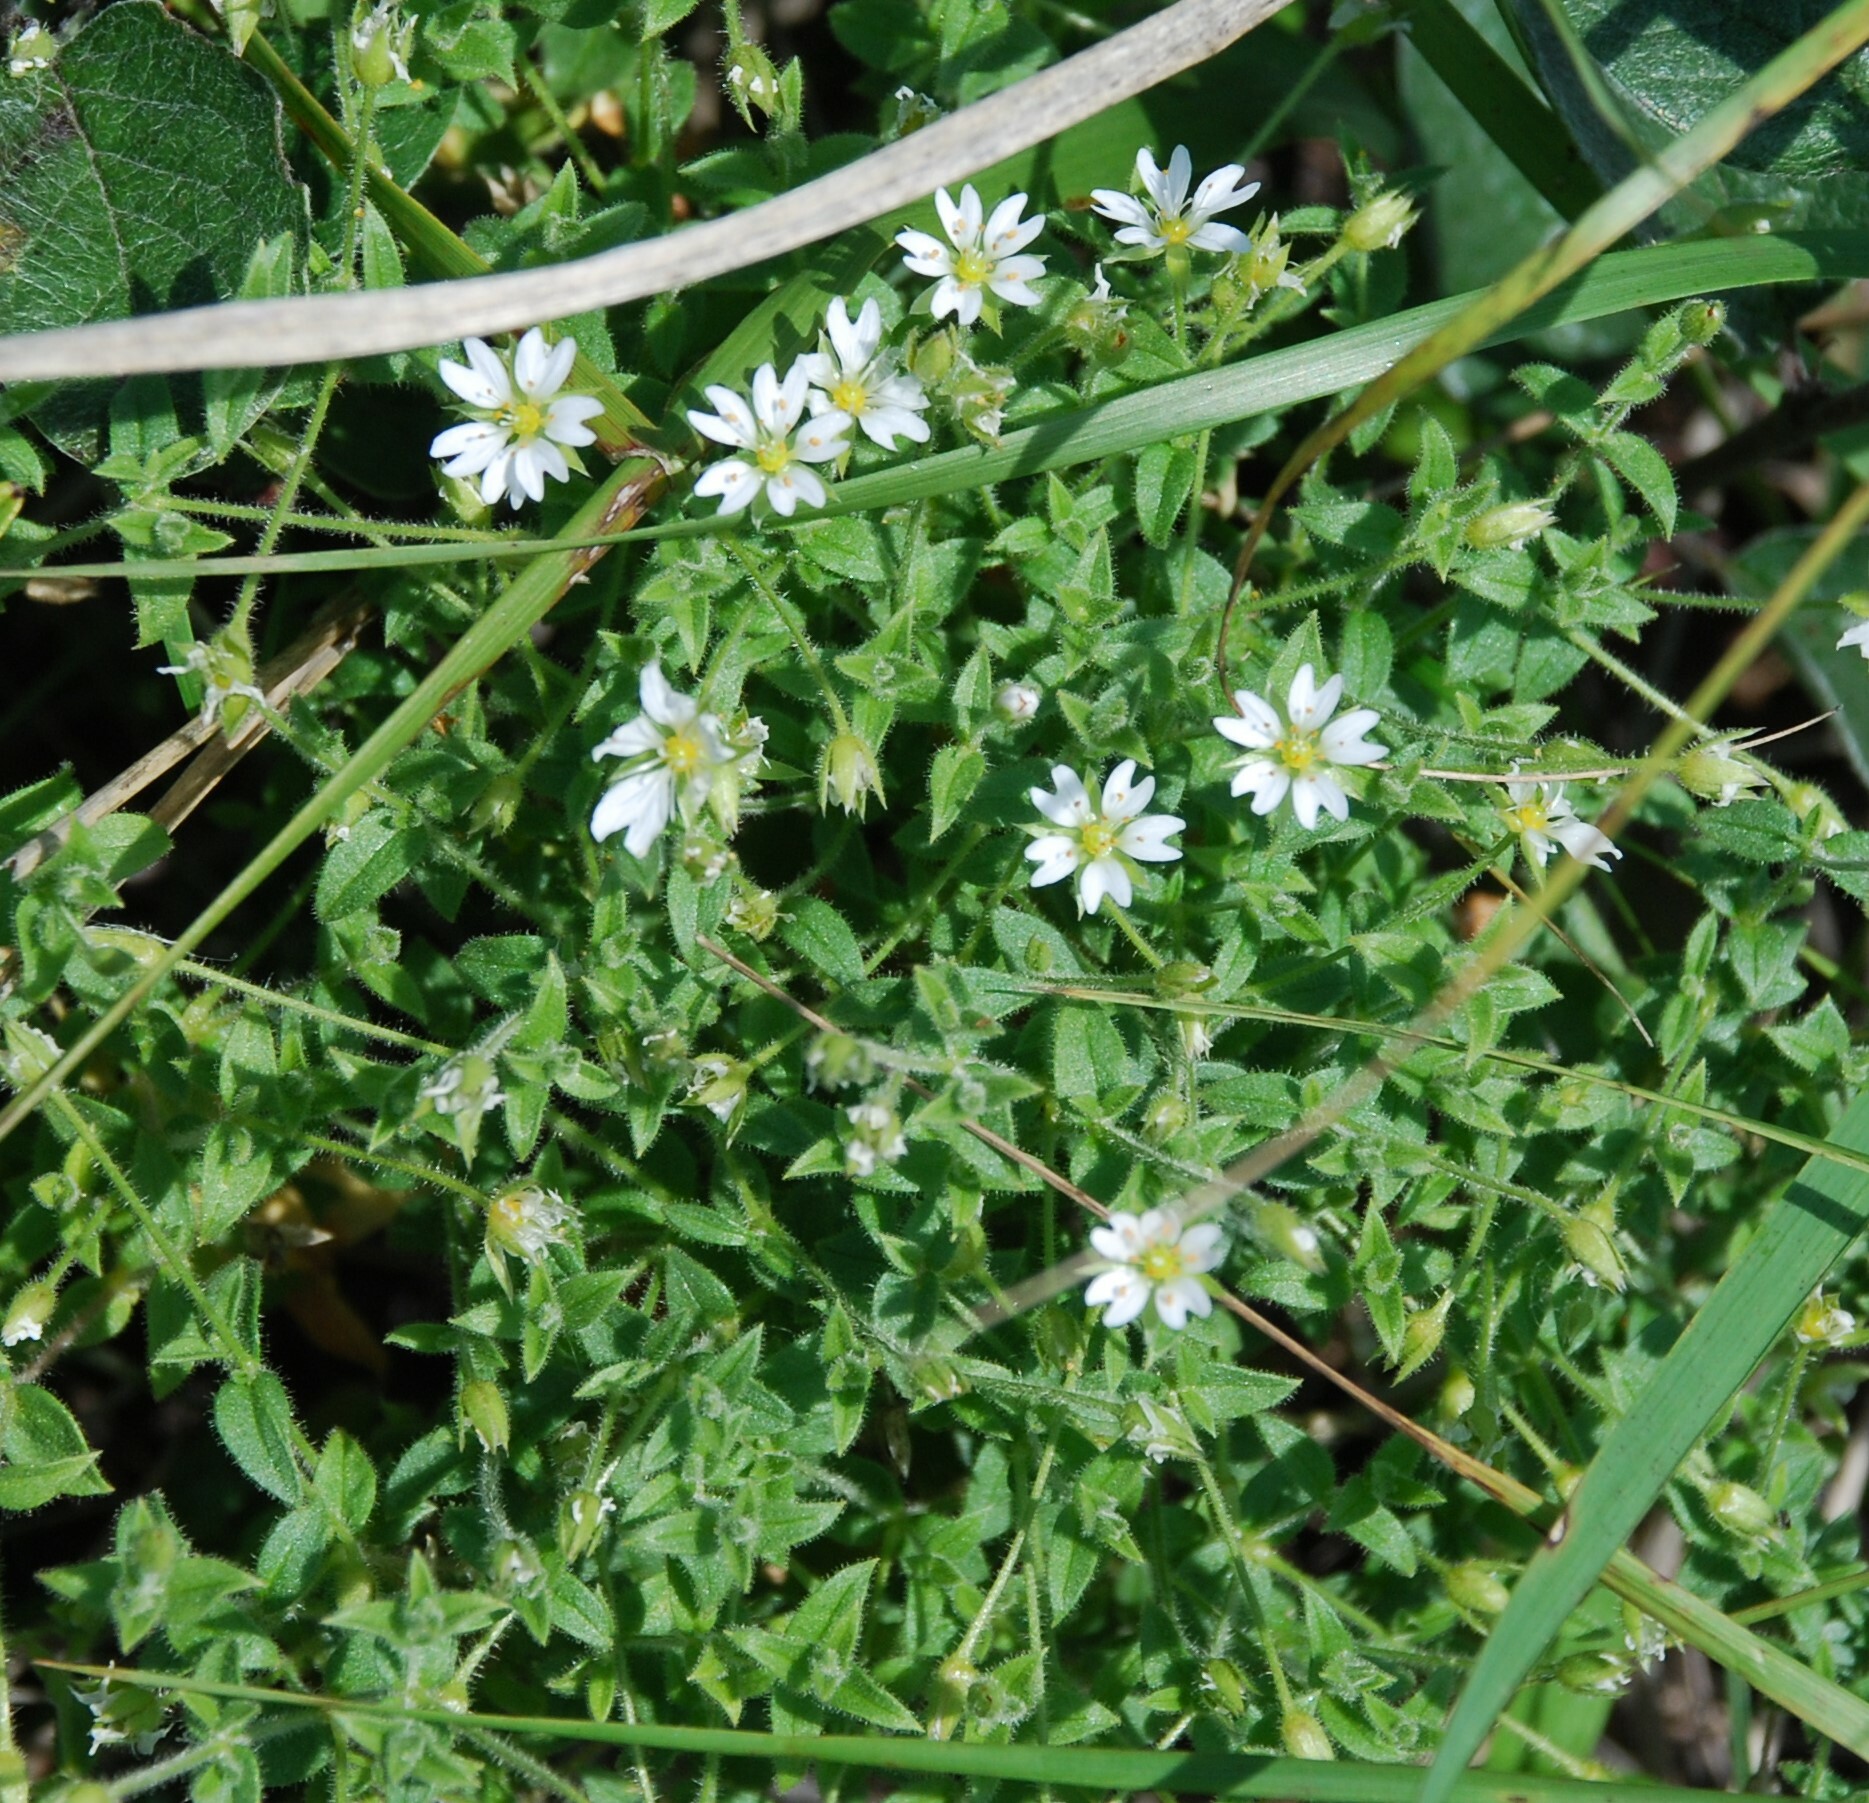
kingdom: Plantae
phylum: Tracheophyta
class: Magnoliopsida
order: Caryophyllales
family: Caryophyllaceae
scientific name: Caryophyllaceae
